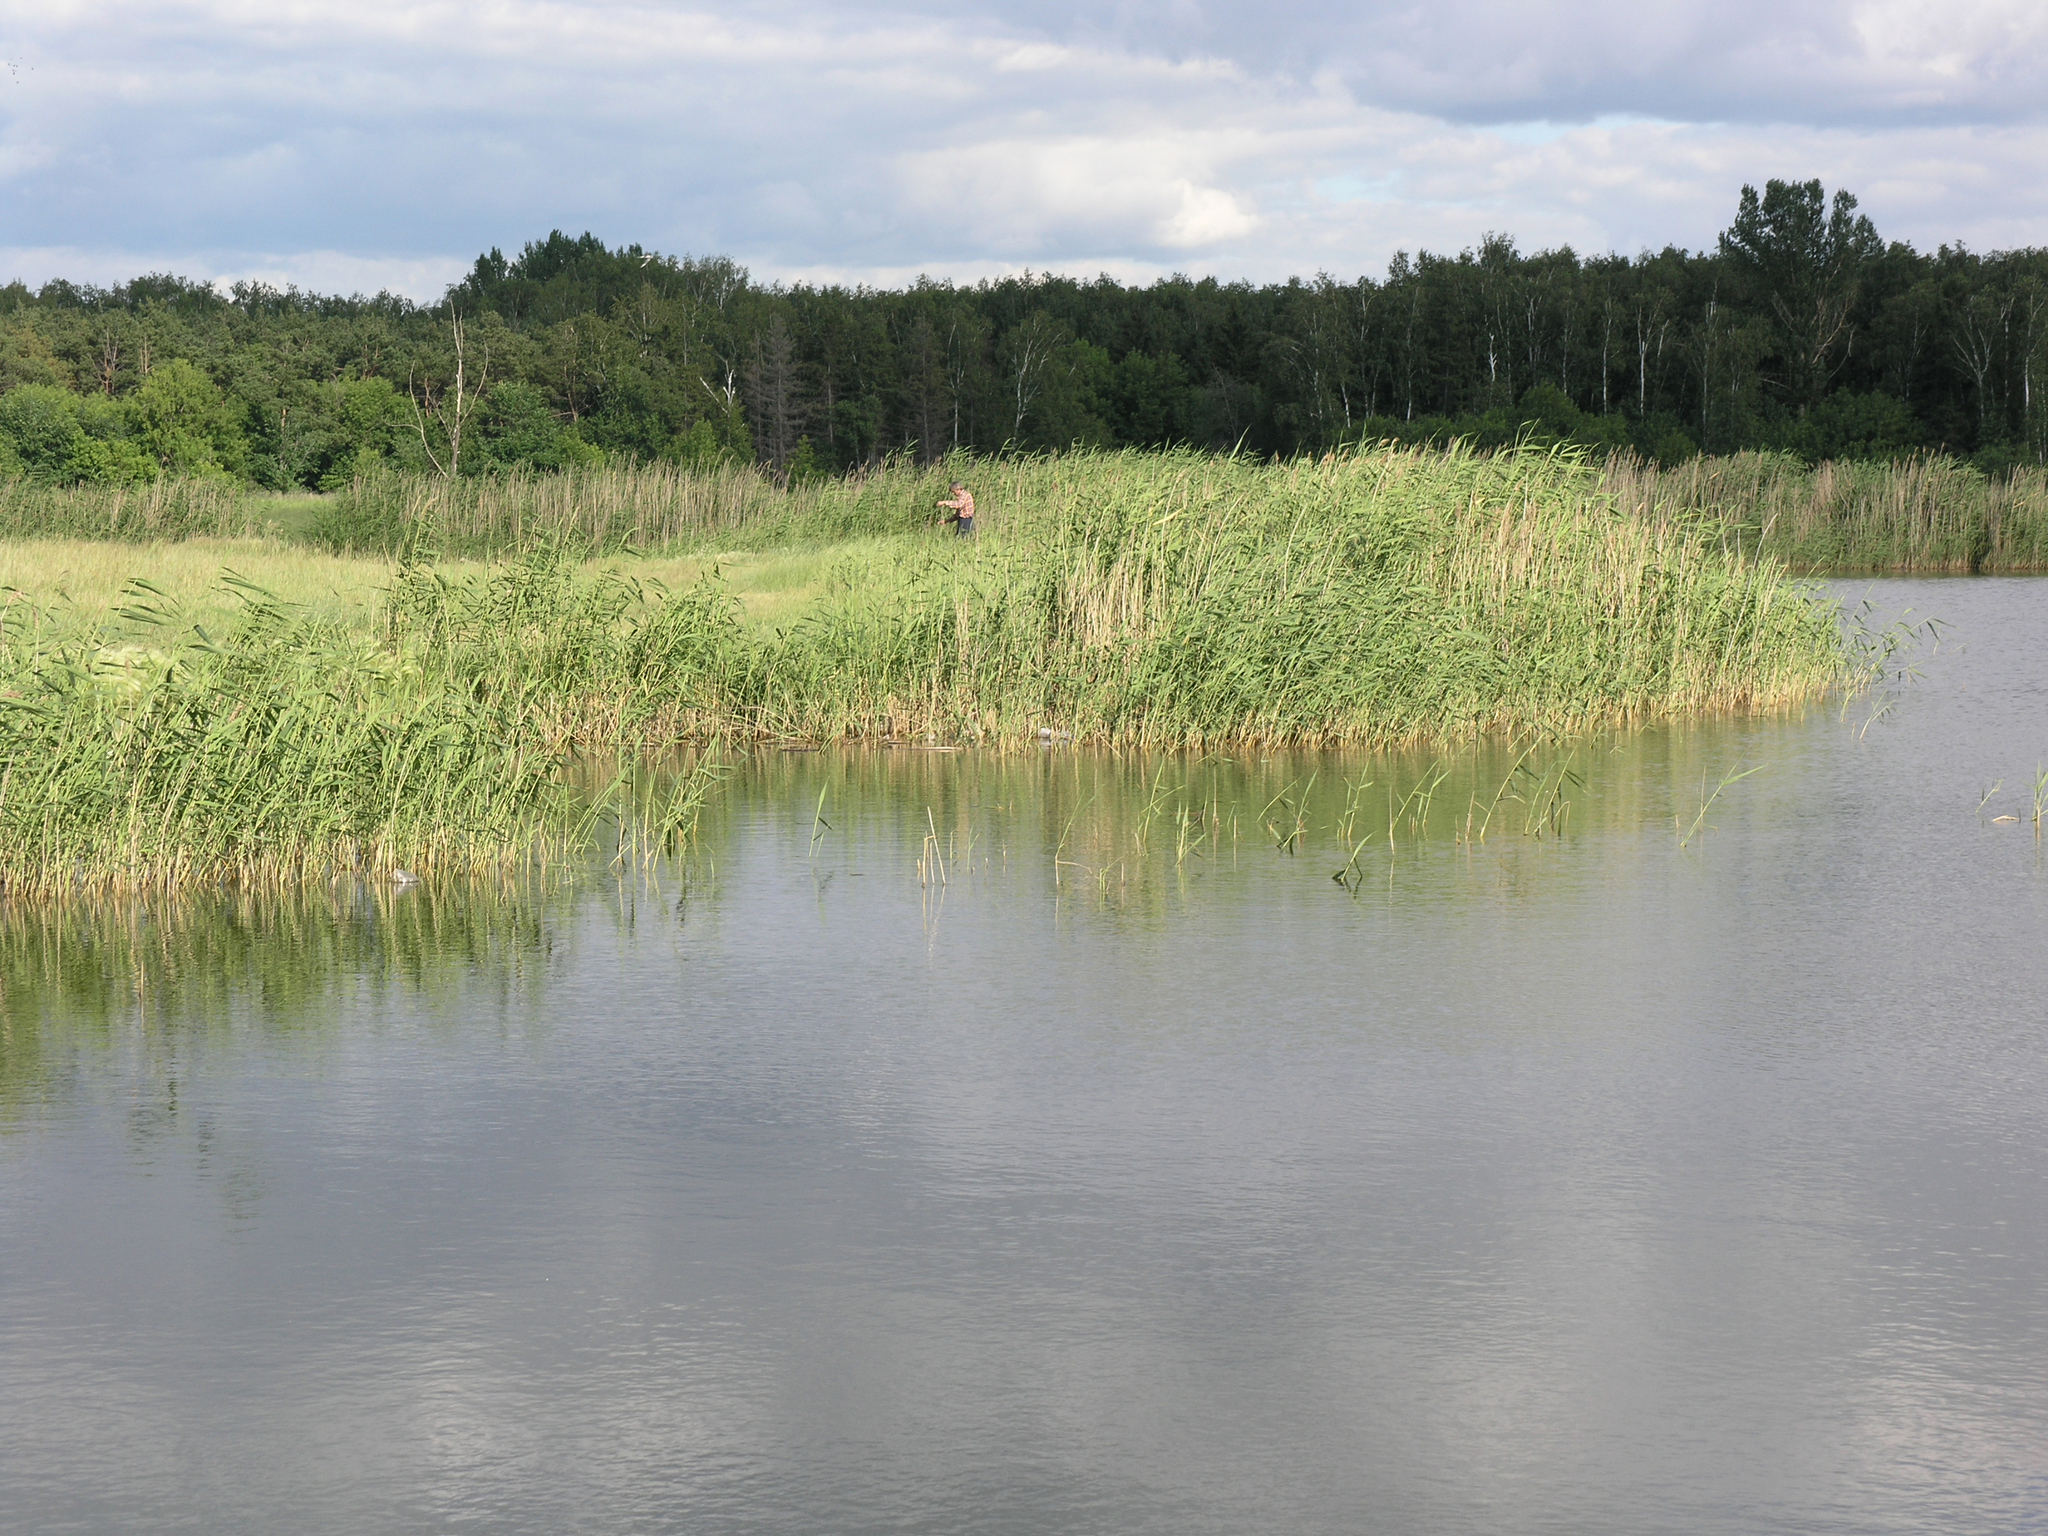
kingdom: Plantae
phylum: Tracheophyta
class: Liliopsida
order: Poales
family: Poaceae
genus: Phragmites
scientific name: Phragmites australis
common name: Common reed
